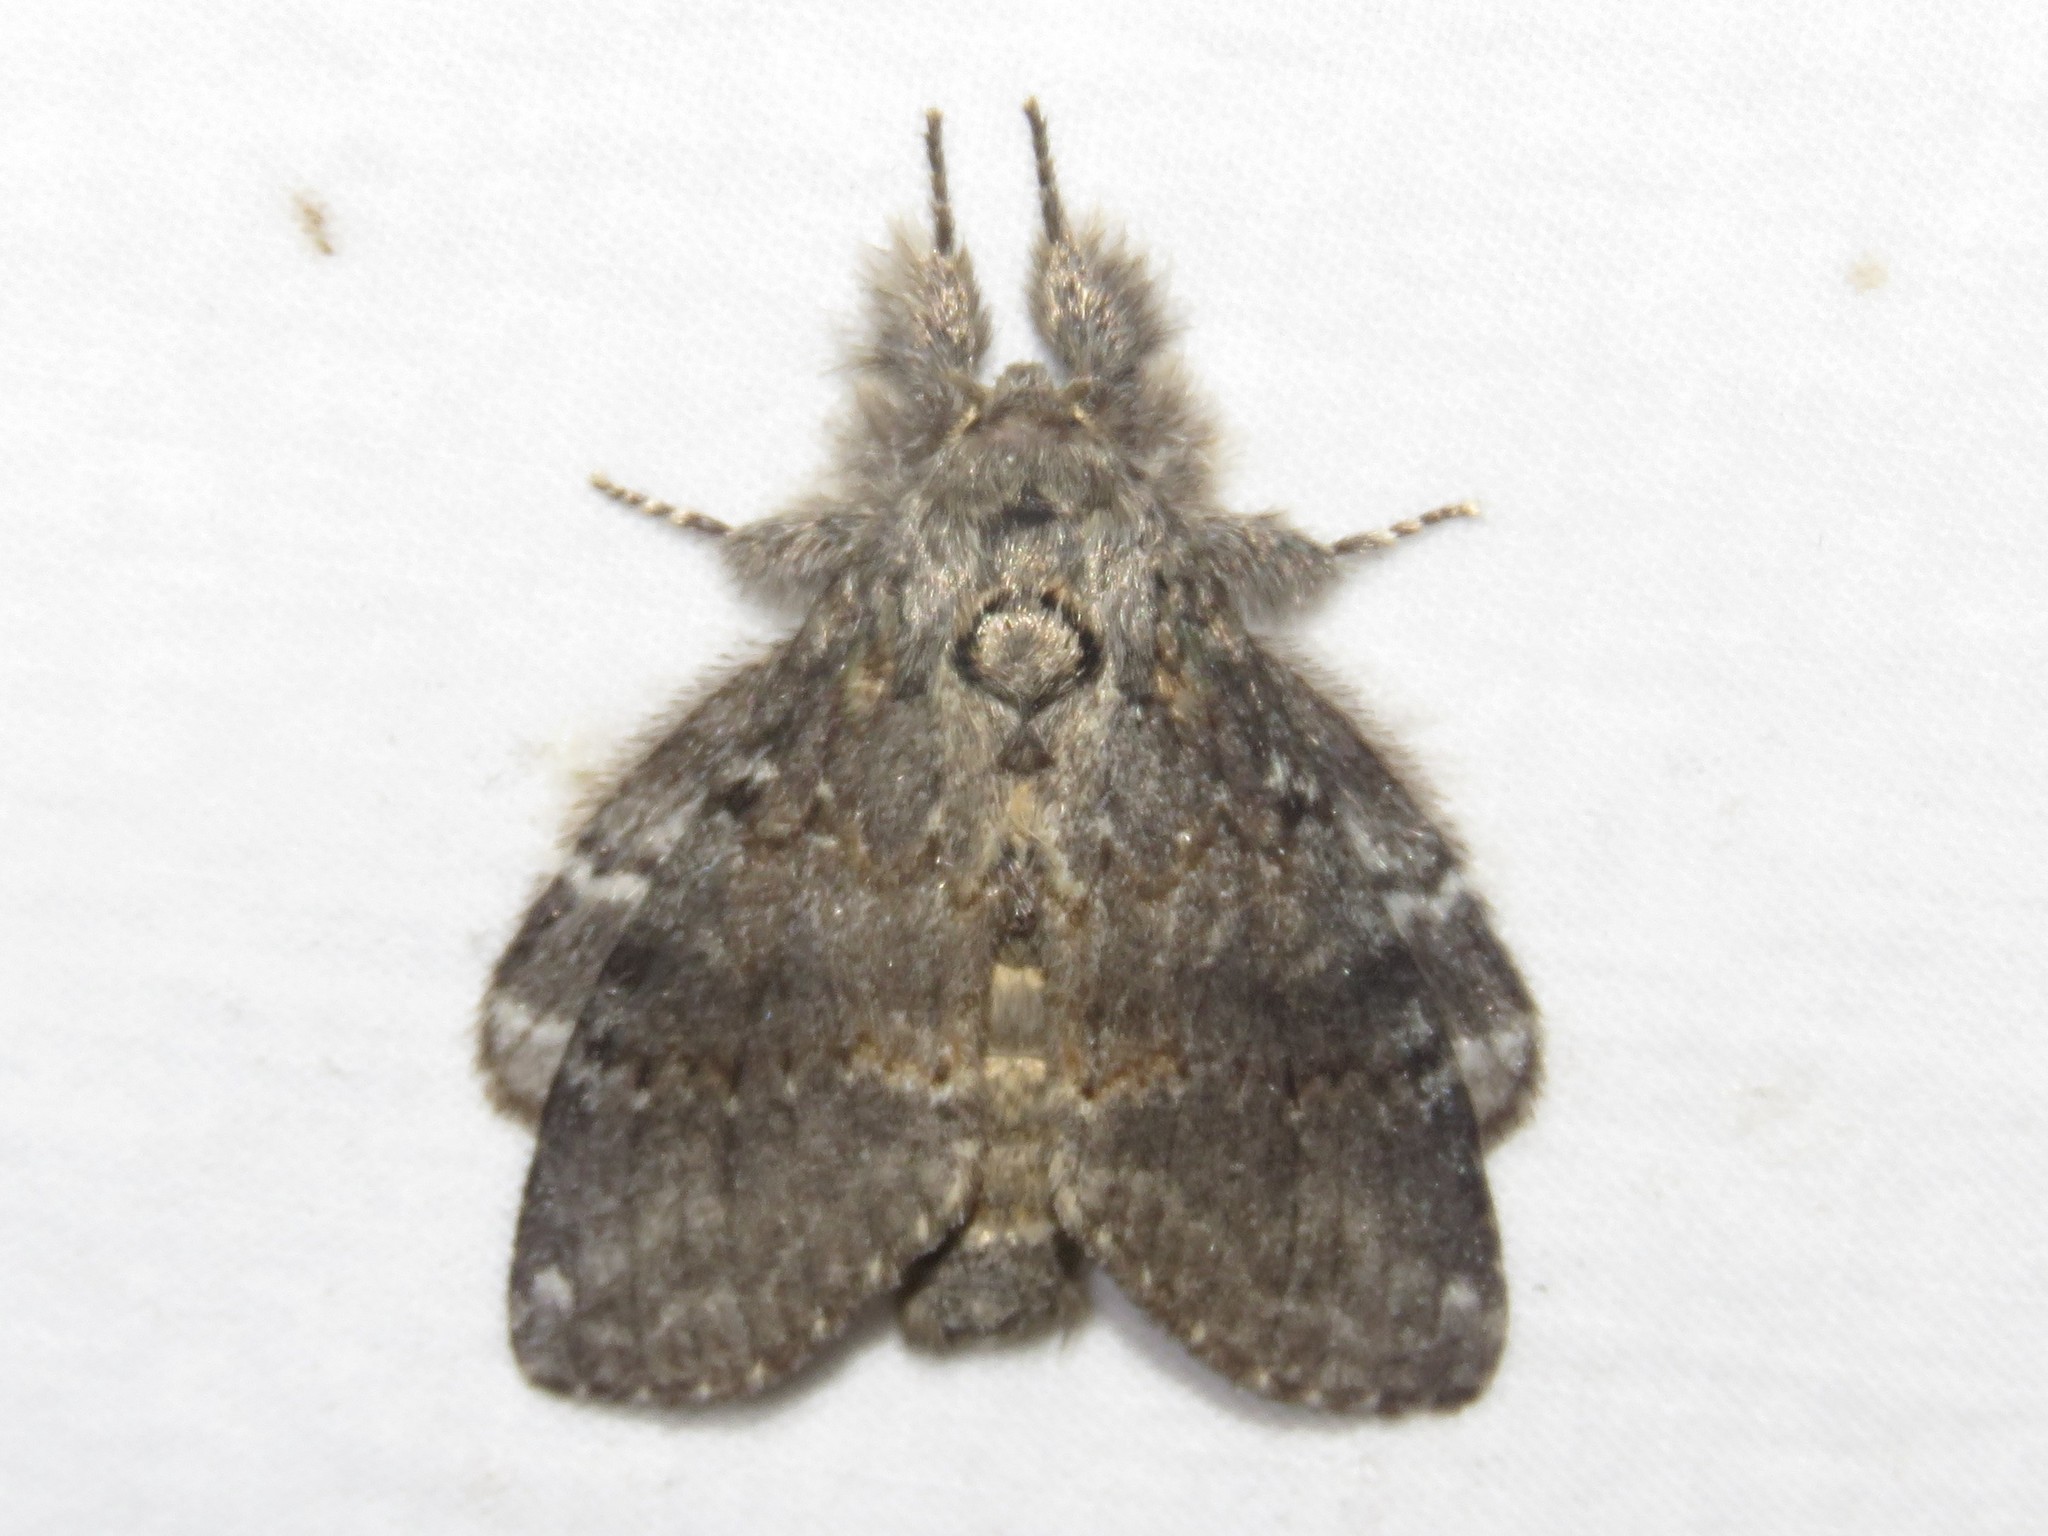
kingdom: Animalia
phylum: Arthropoda
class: Insecta
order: Lepidoptera
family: Notodontidae
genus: Peridea
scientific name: Peridea angulosa
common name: Angulose prominent
